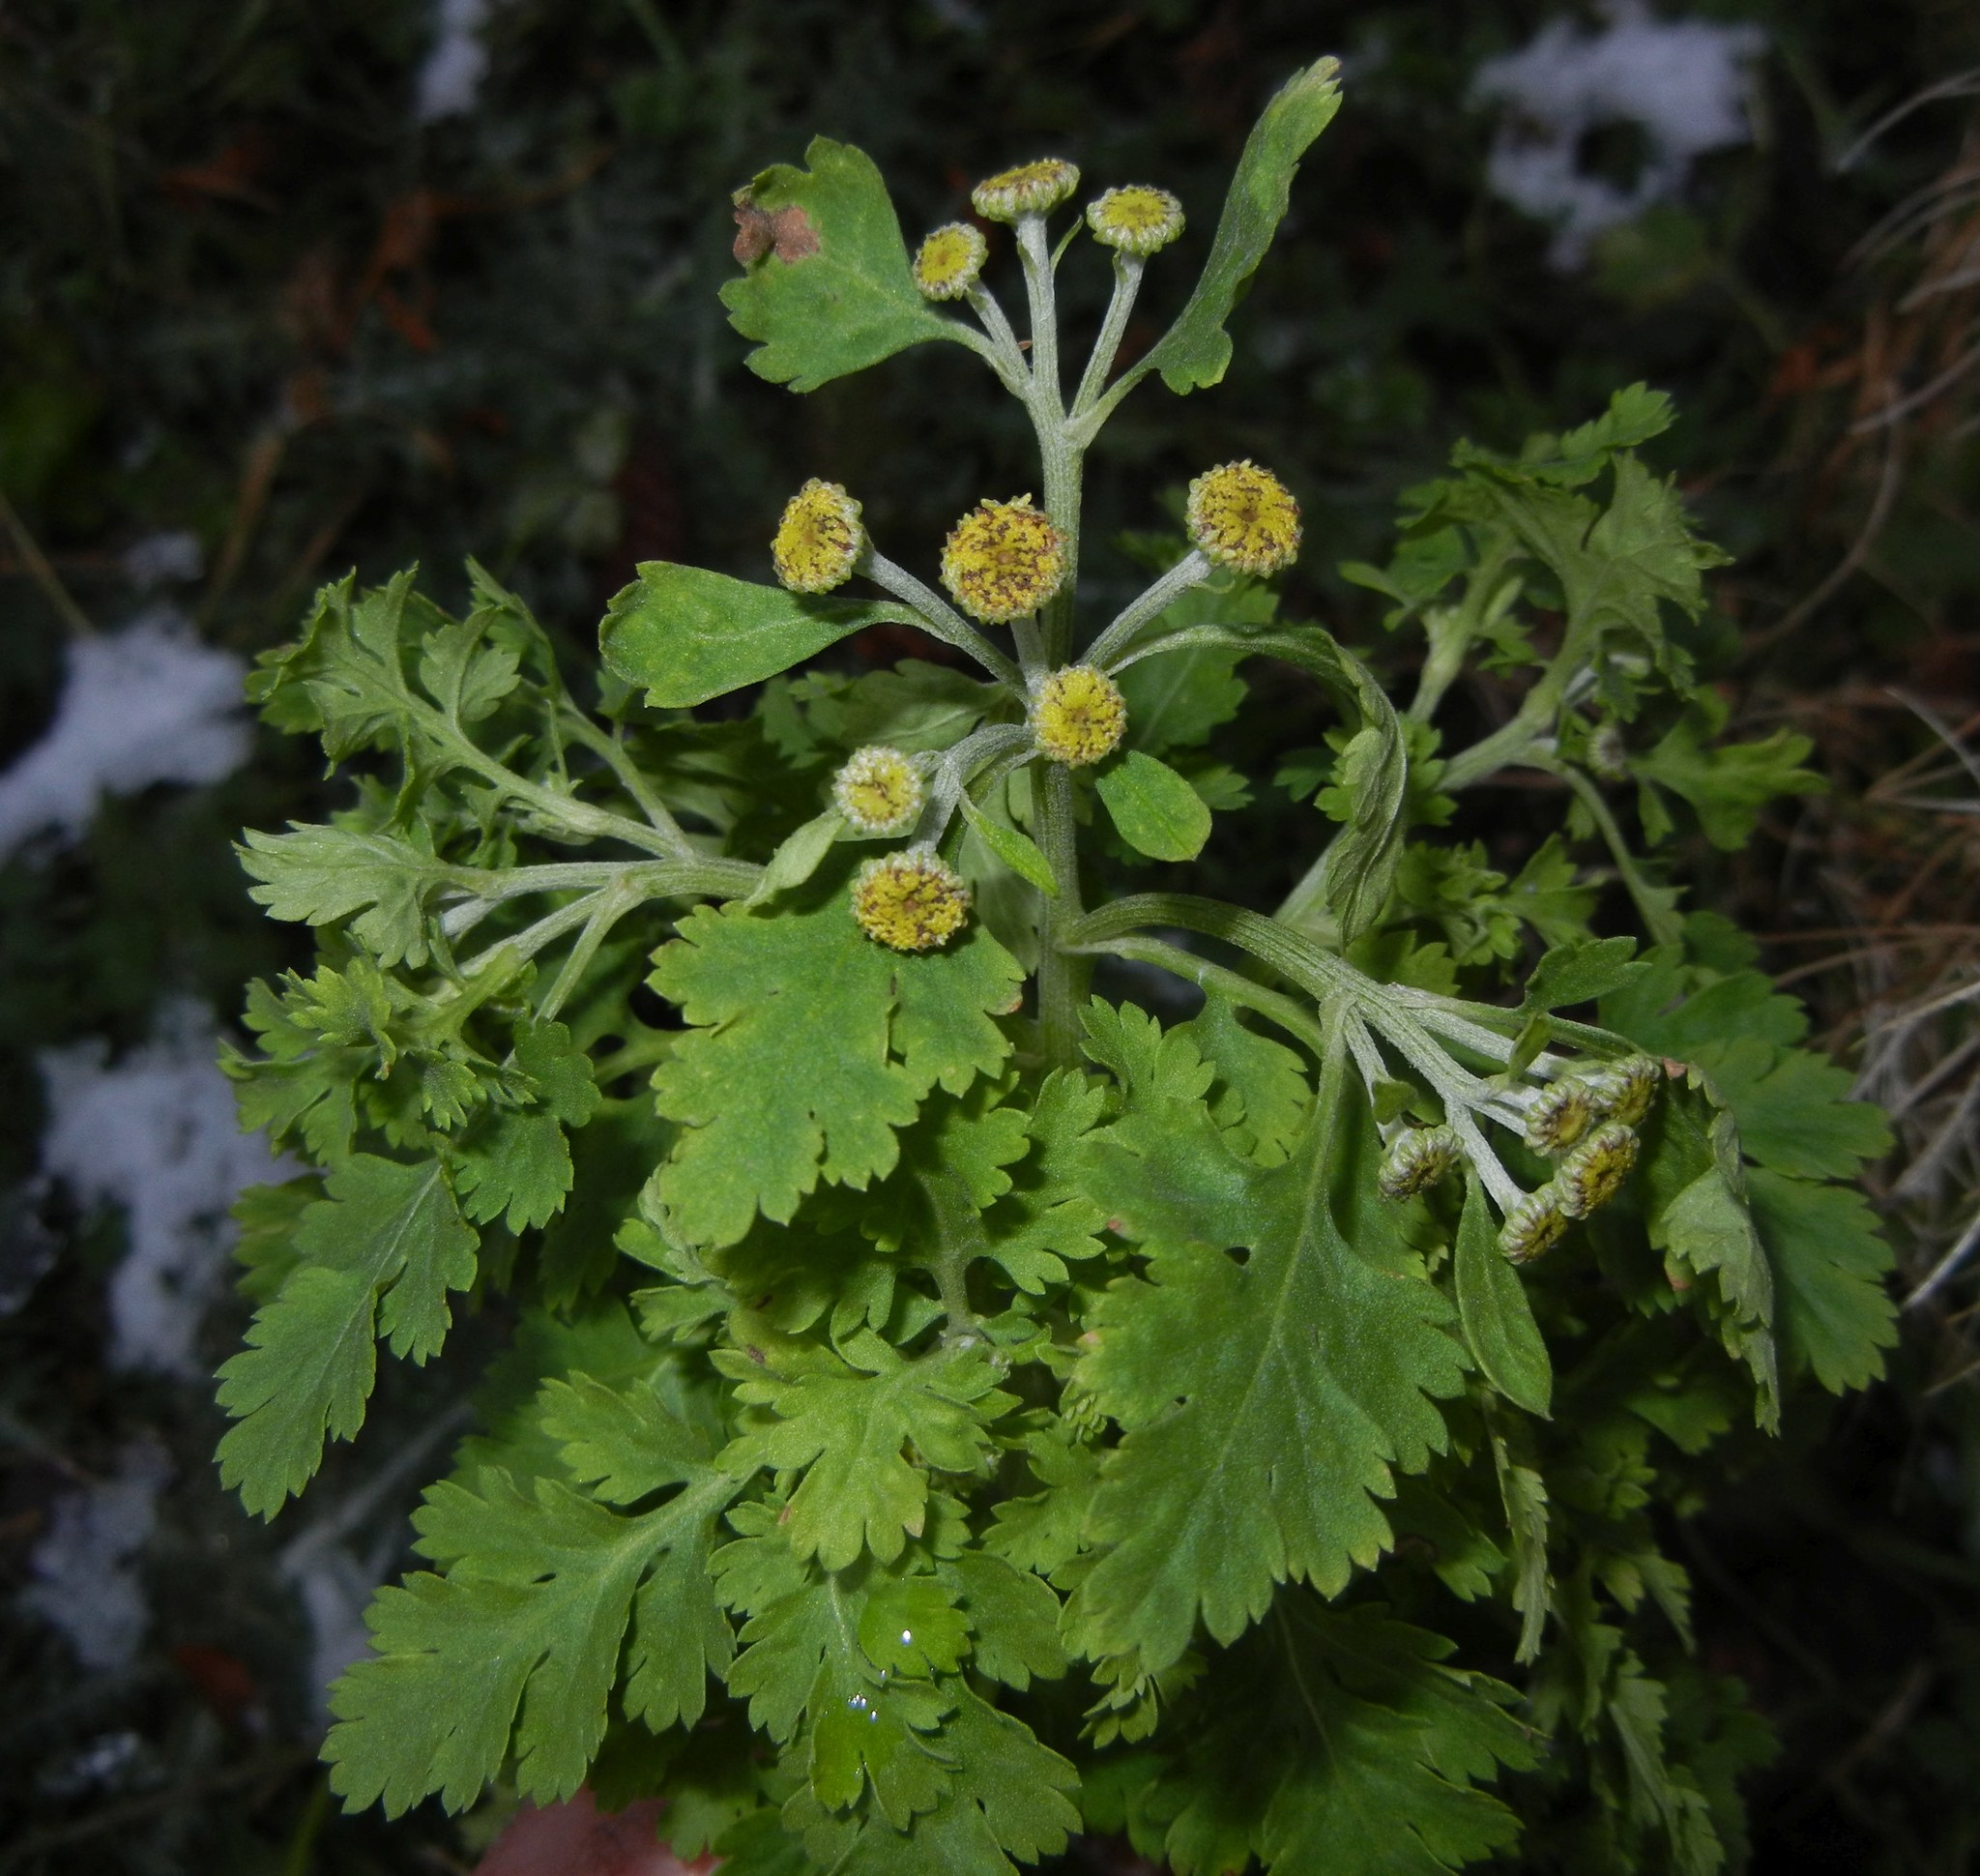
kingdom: Plantae
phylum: Tracheophyta
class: Magnoliopsida
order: Asterales
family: Asteraceae
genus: Tanacetum
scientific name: Tanacetum parthenium
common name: Feverfew
